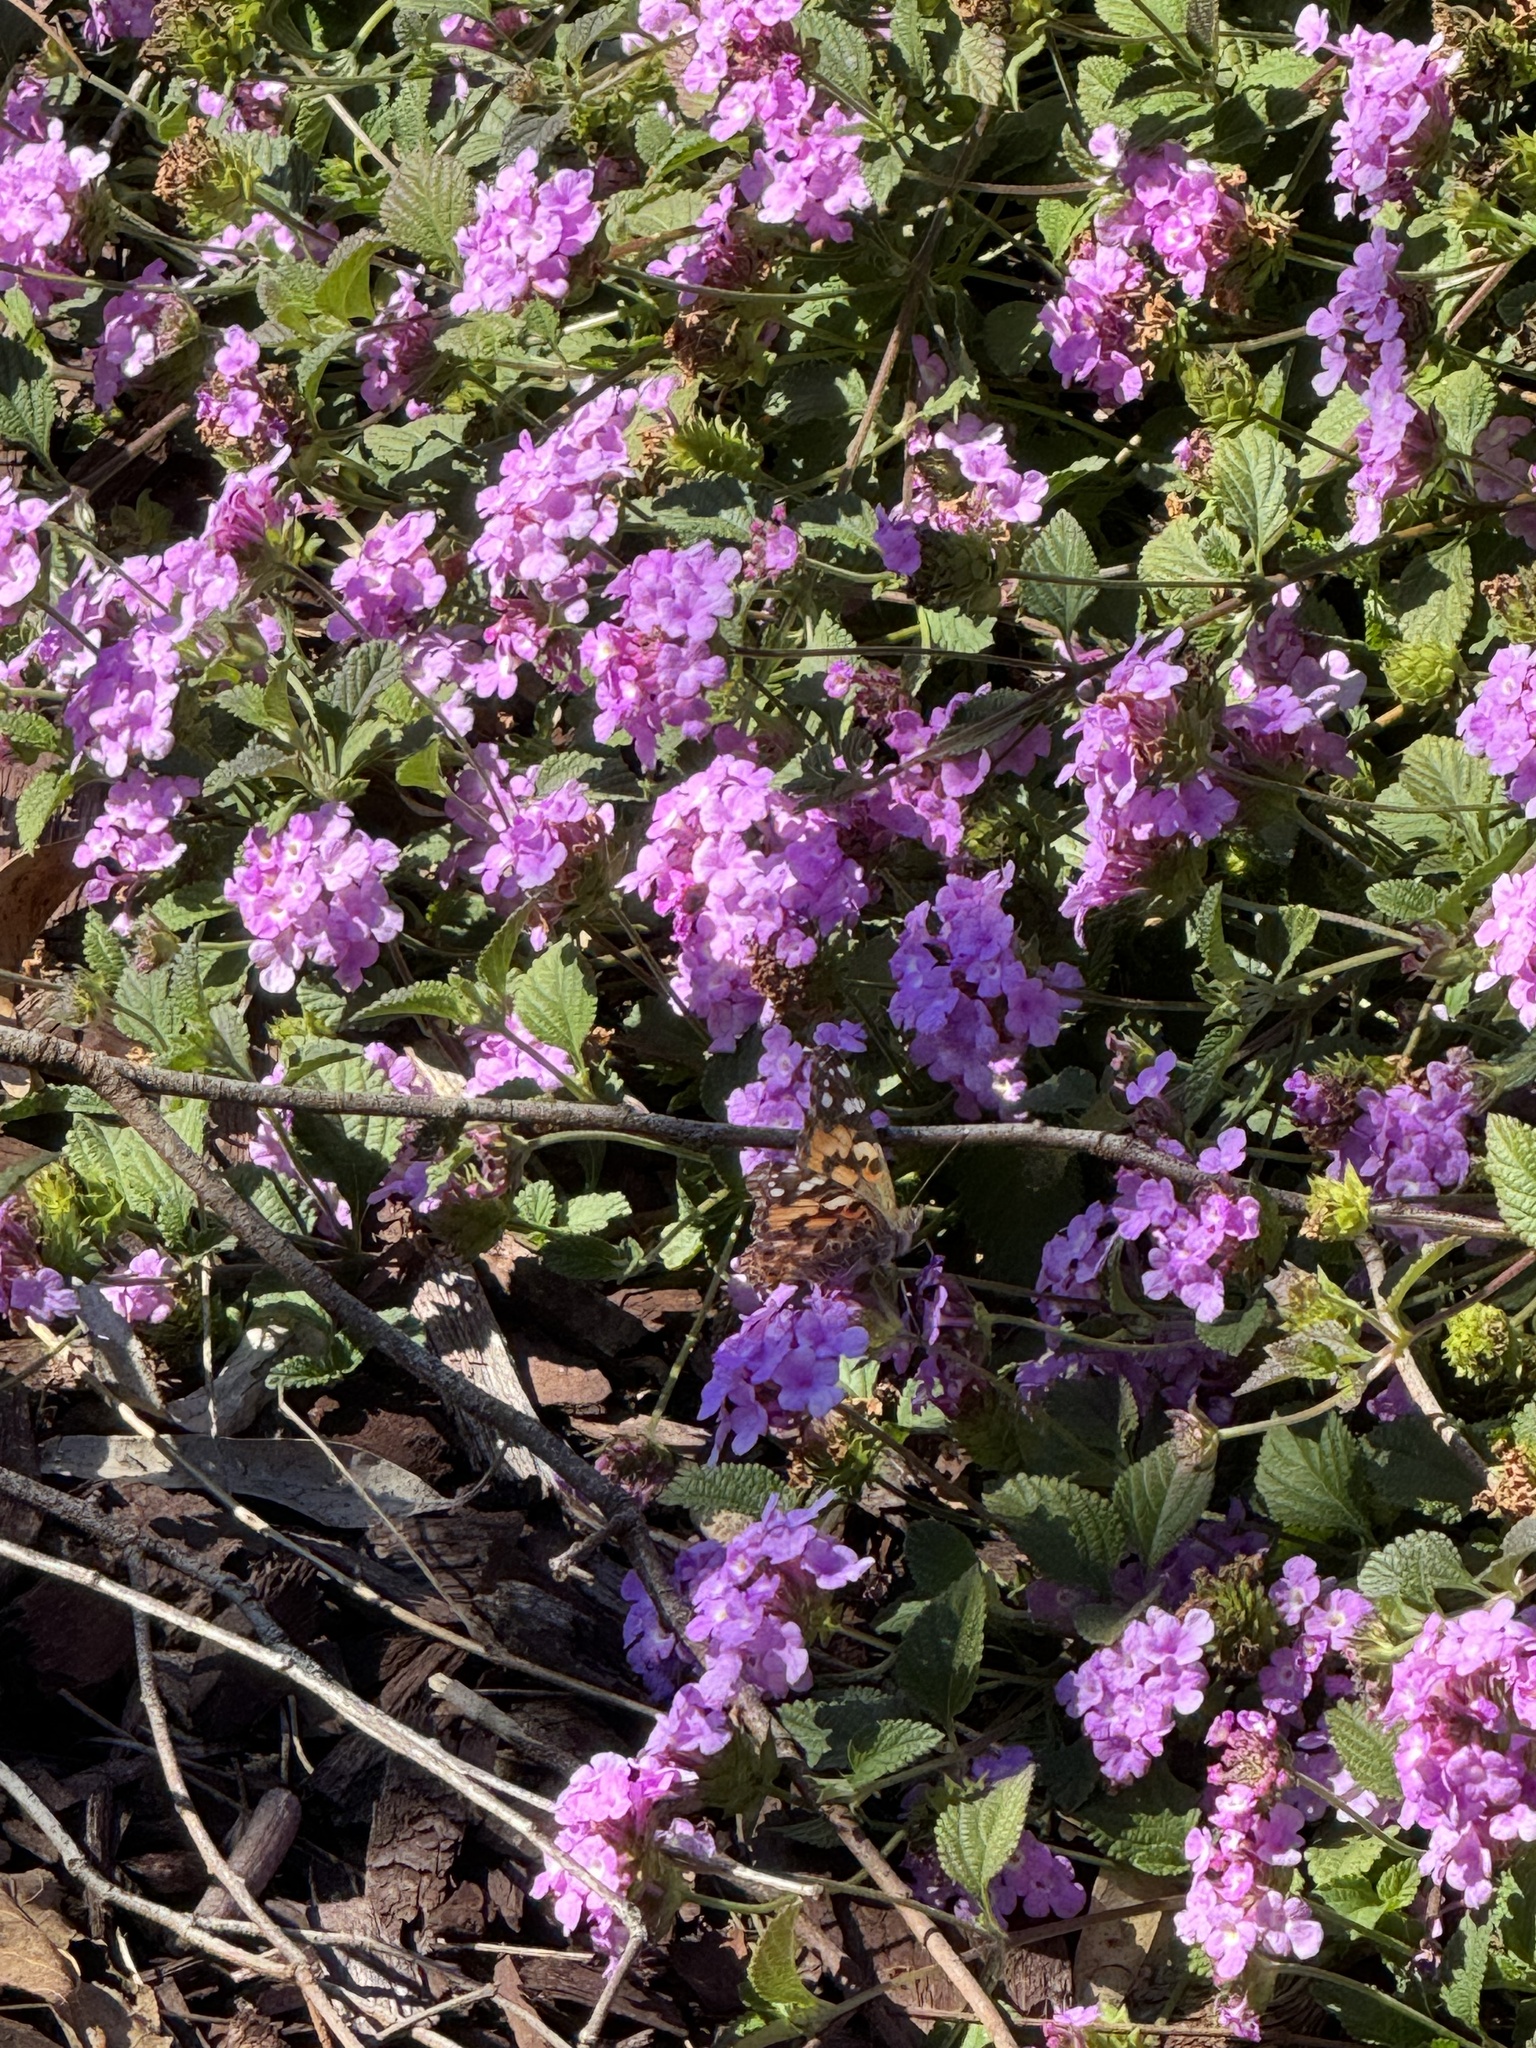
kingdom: Animalia
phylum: Arthropoda
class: Insecta
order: Lepidoptera
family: Nymphalidae
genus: Vanessa
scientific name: Vanessa cardui
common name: Painted lady
